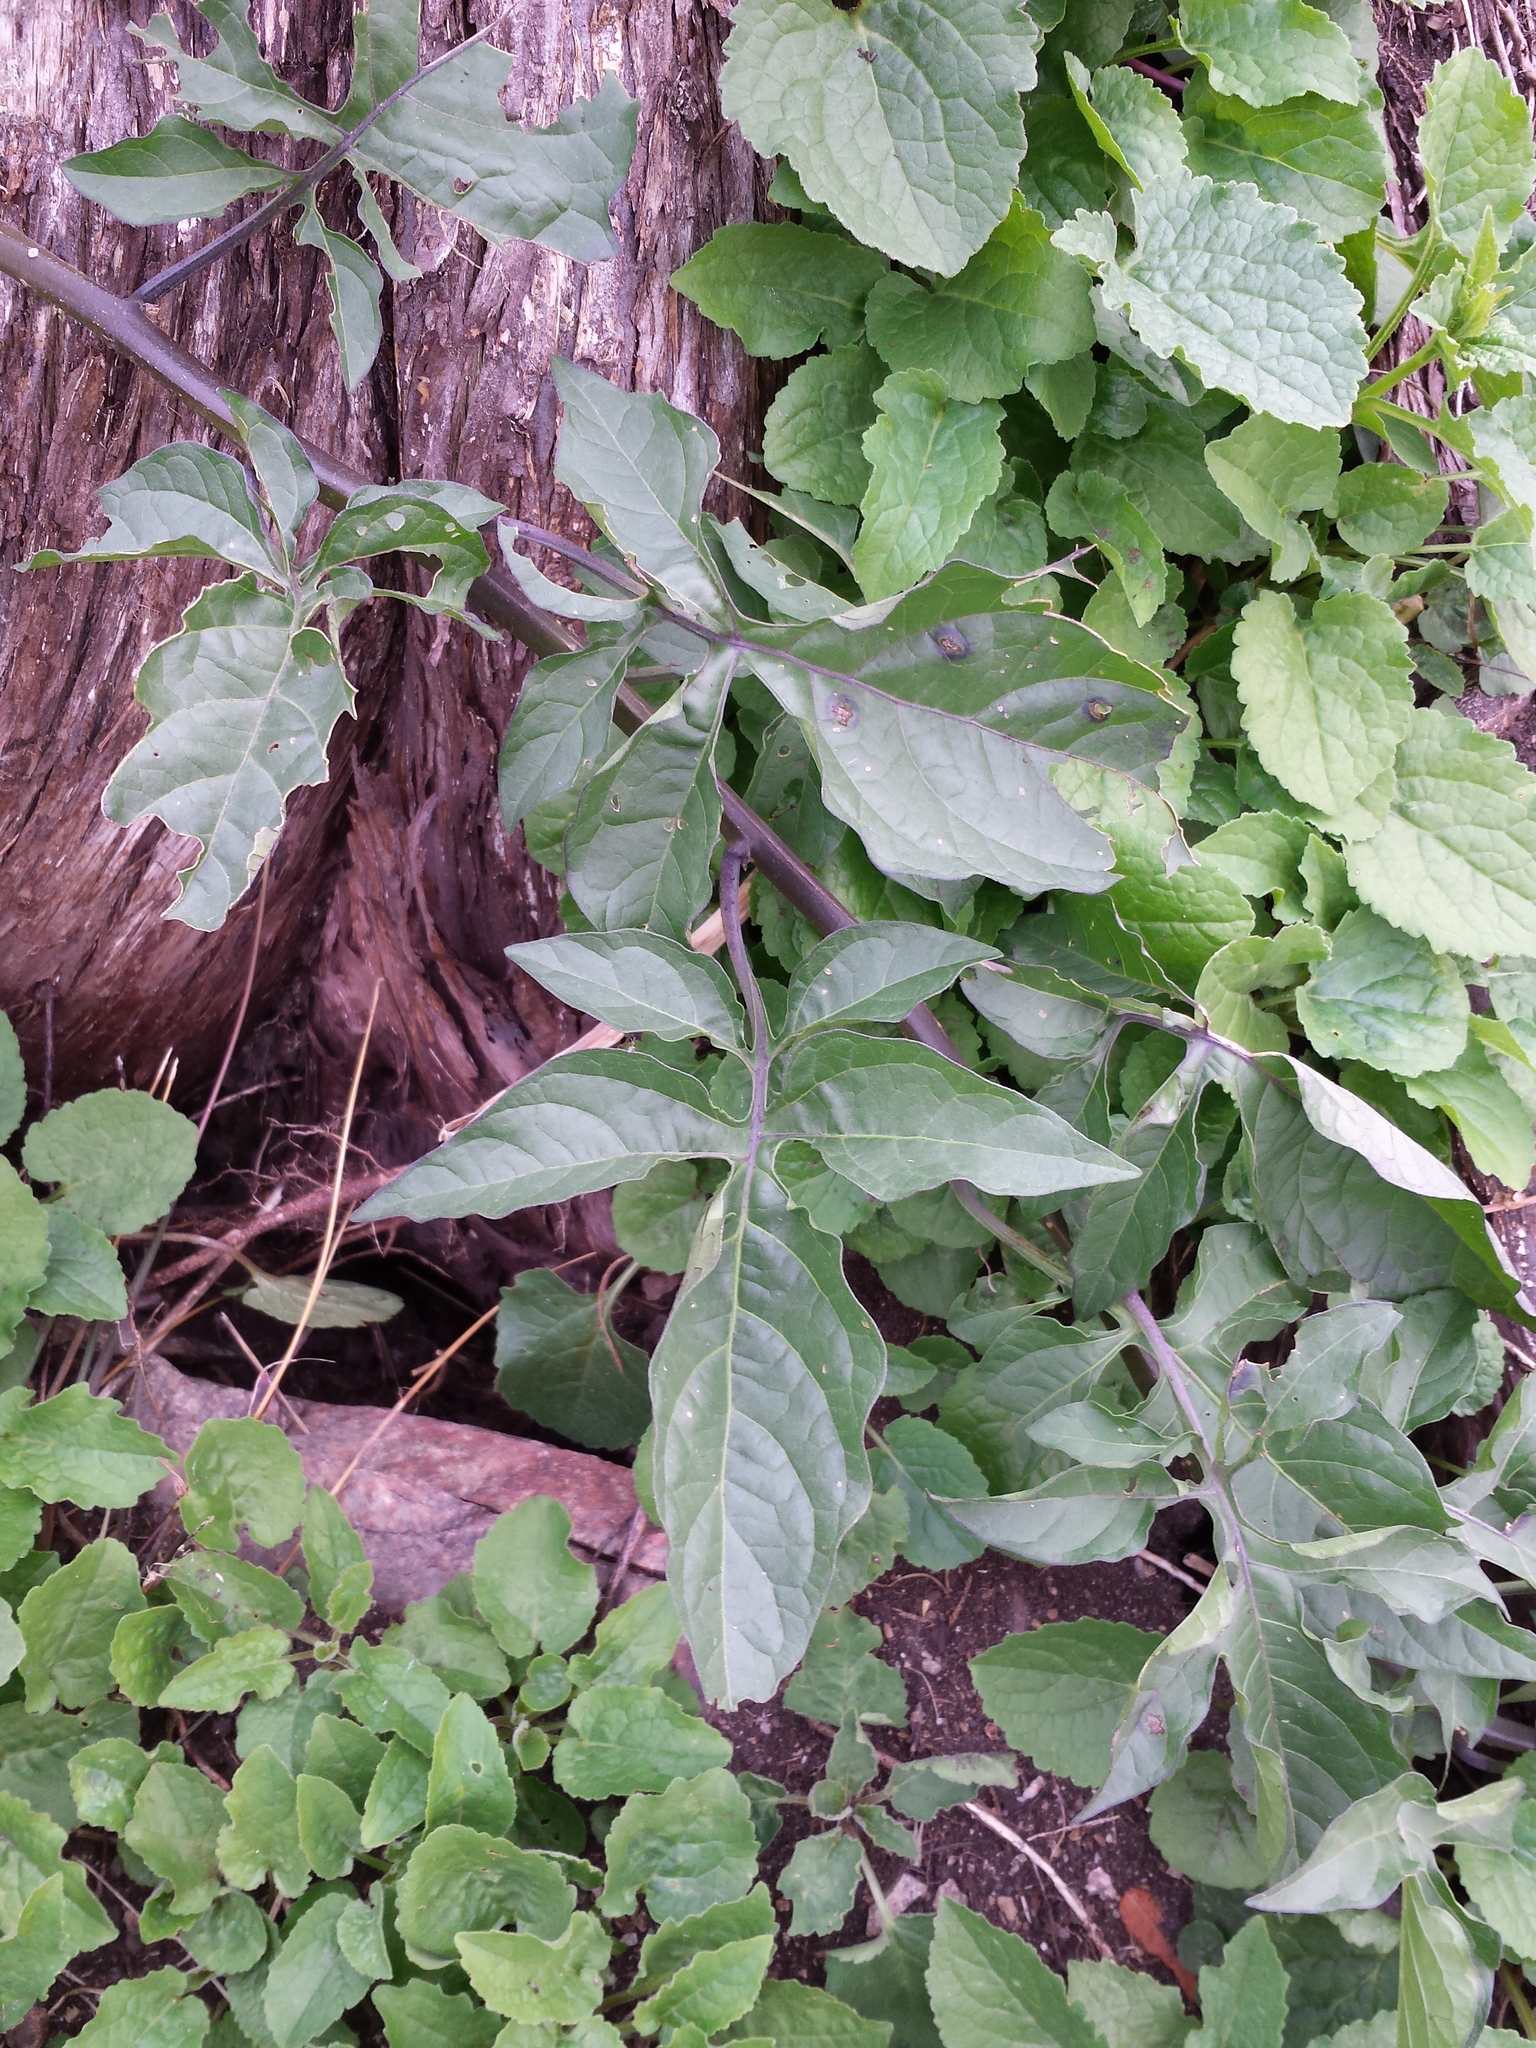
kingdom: Plantae
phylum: Tracheophyta
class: Magnoliopsida
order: Solanales
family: Solanaceae
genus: Solanum
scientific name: Solanum dulcamara
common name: Climbing nightshade
